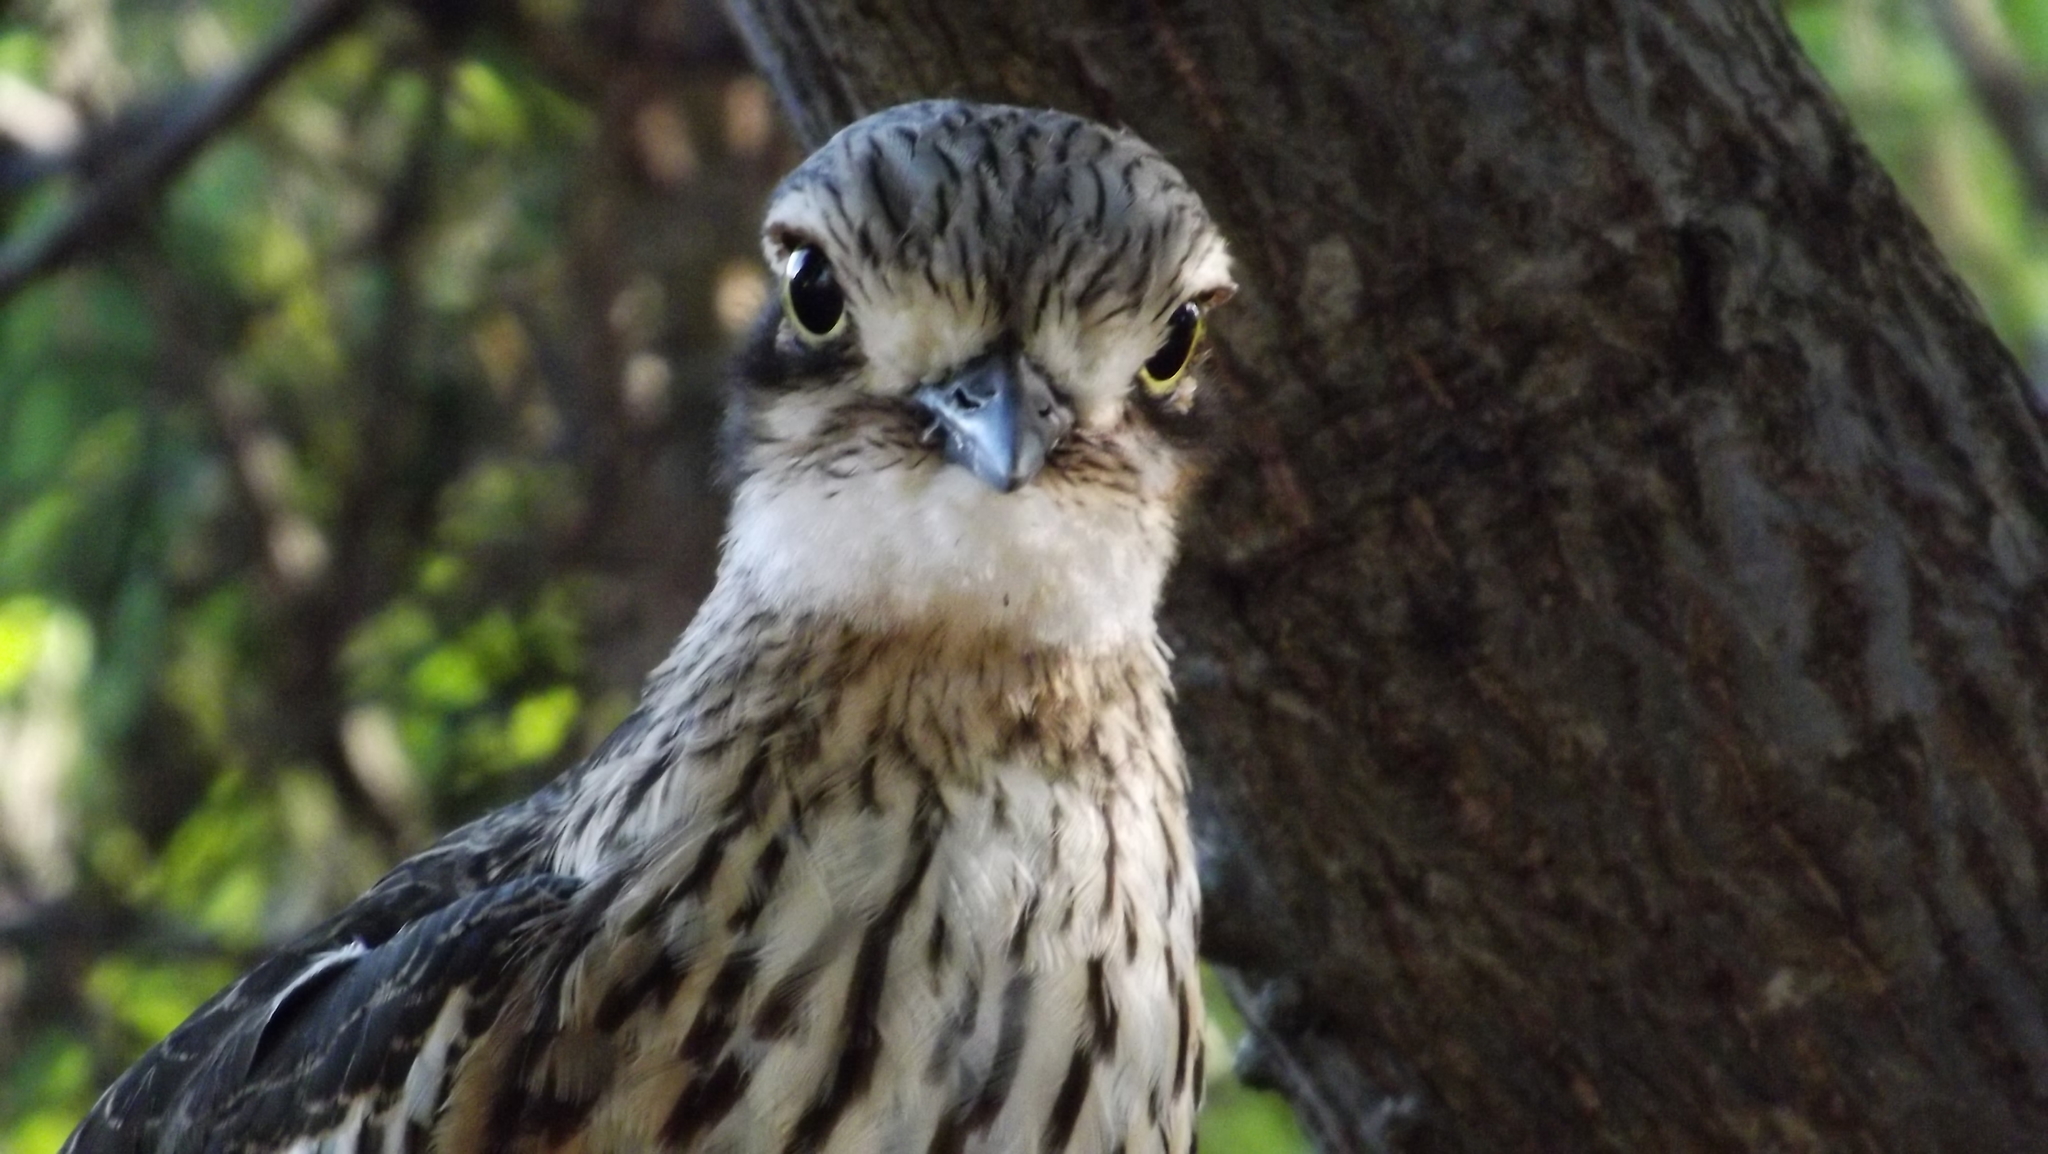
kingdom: Animalia
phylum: Chordata
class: Aves
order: Charadriiformes
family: Burhinidae
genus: Burhinus
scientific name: Burhinus grallarius
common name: Bush stone-curlew
